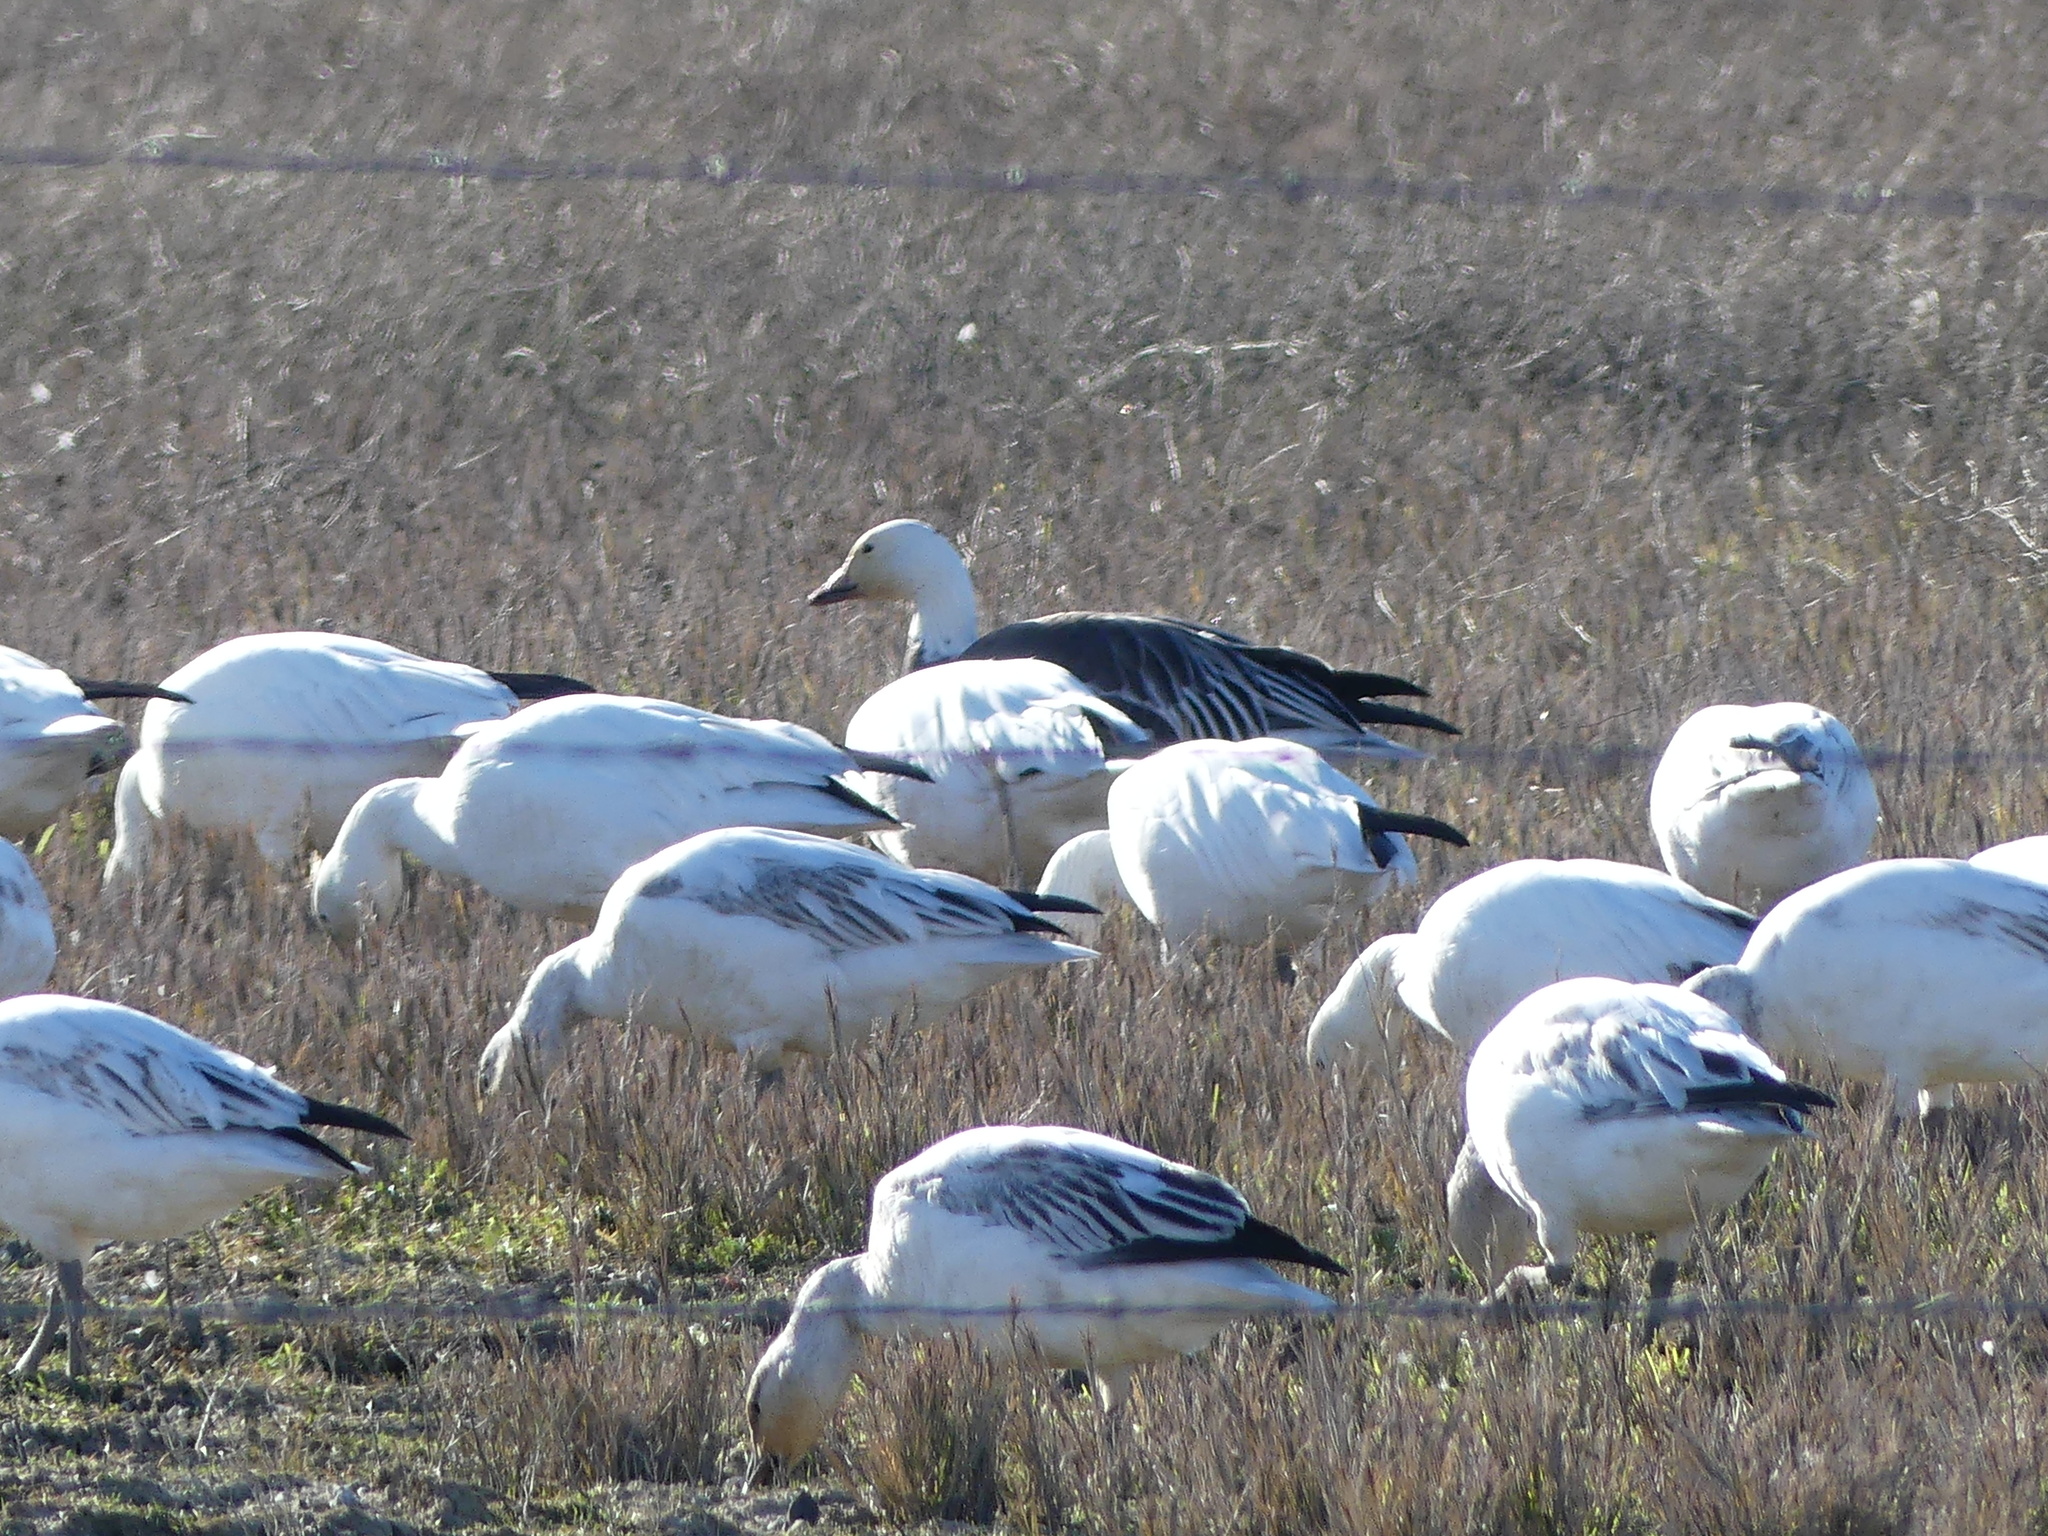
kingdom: Animalia
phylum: Chordata
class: Aves
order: Anseriformes
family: Anatidae
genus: Anser
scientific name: Anser caerulescens
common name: Snow goose
